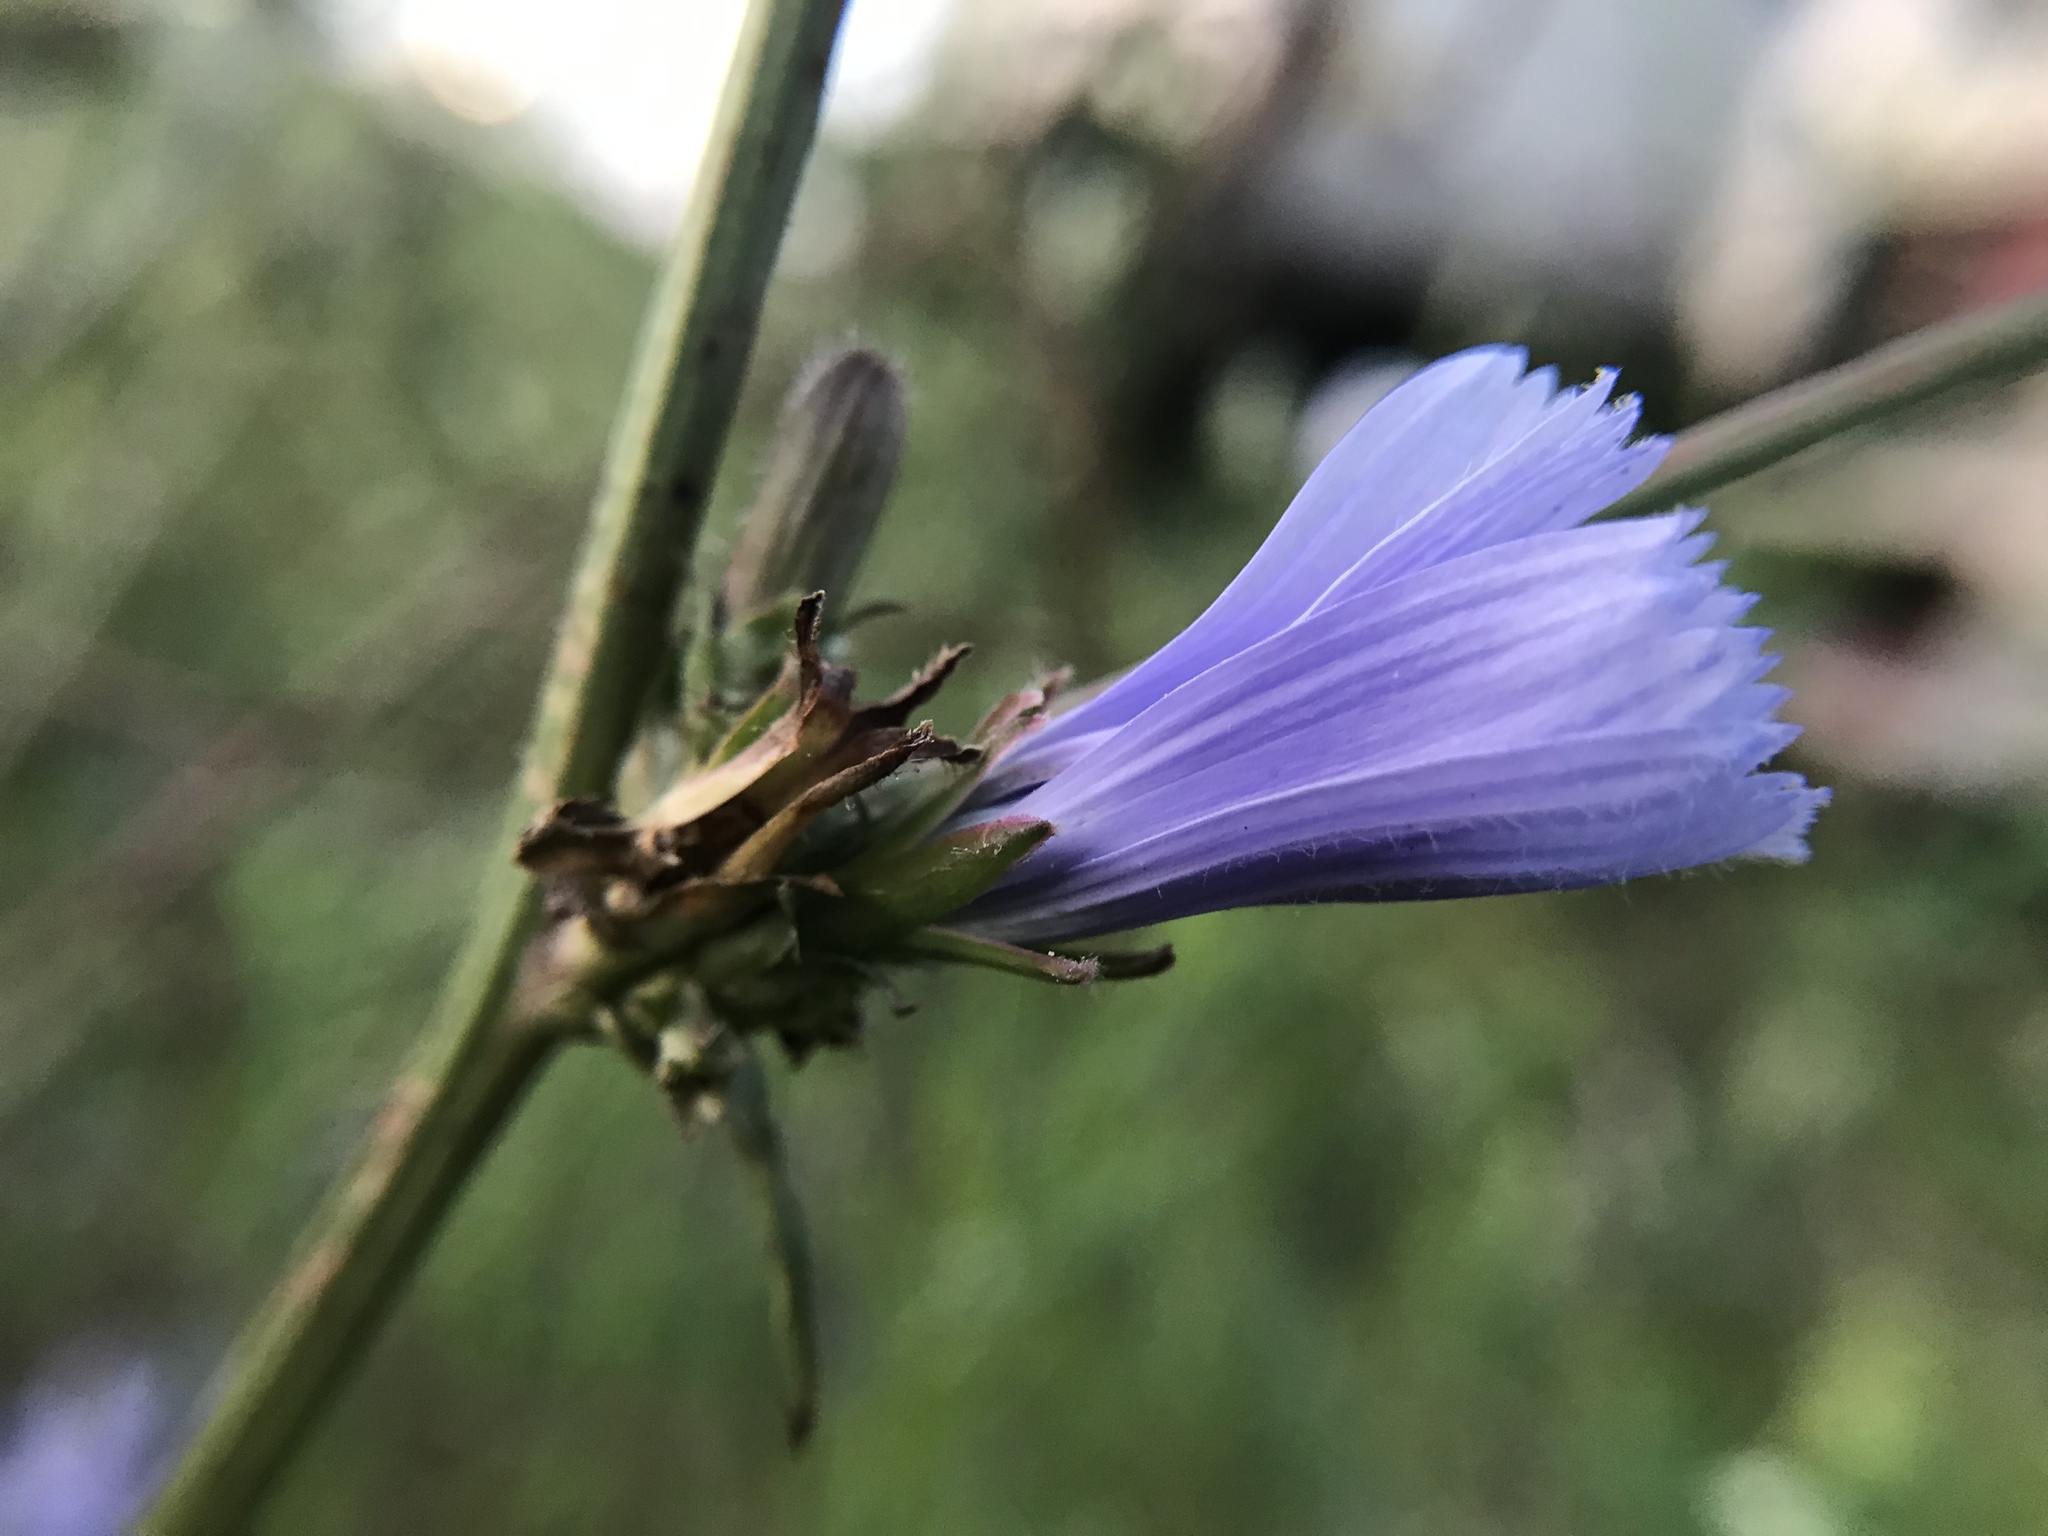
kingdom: Plantae
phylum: Tracheophyta
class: Magnoliopsida
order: Asterales
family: Asteraceae
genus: Cichorium
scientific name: Cichorium intybus
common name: Chicory
